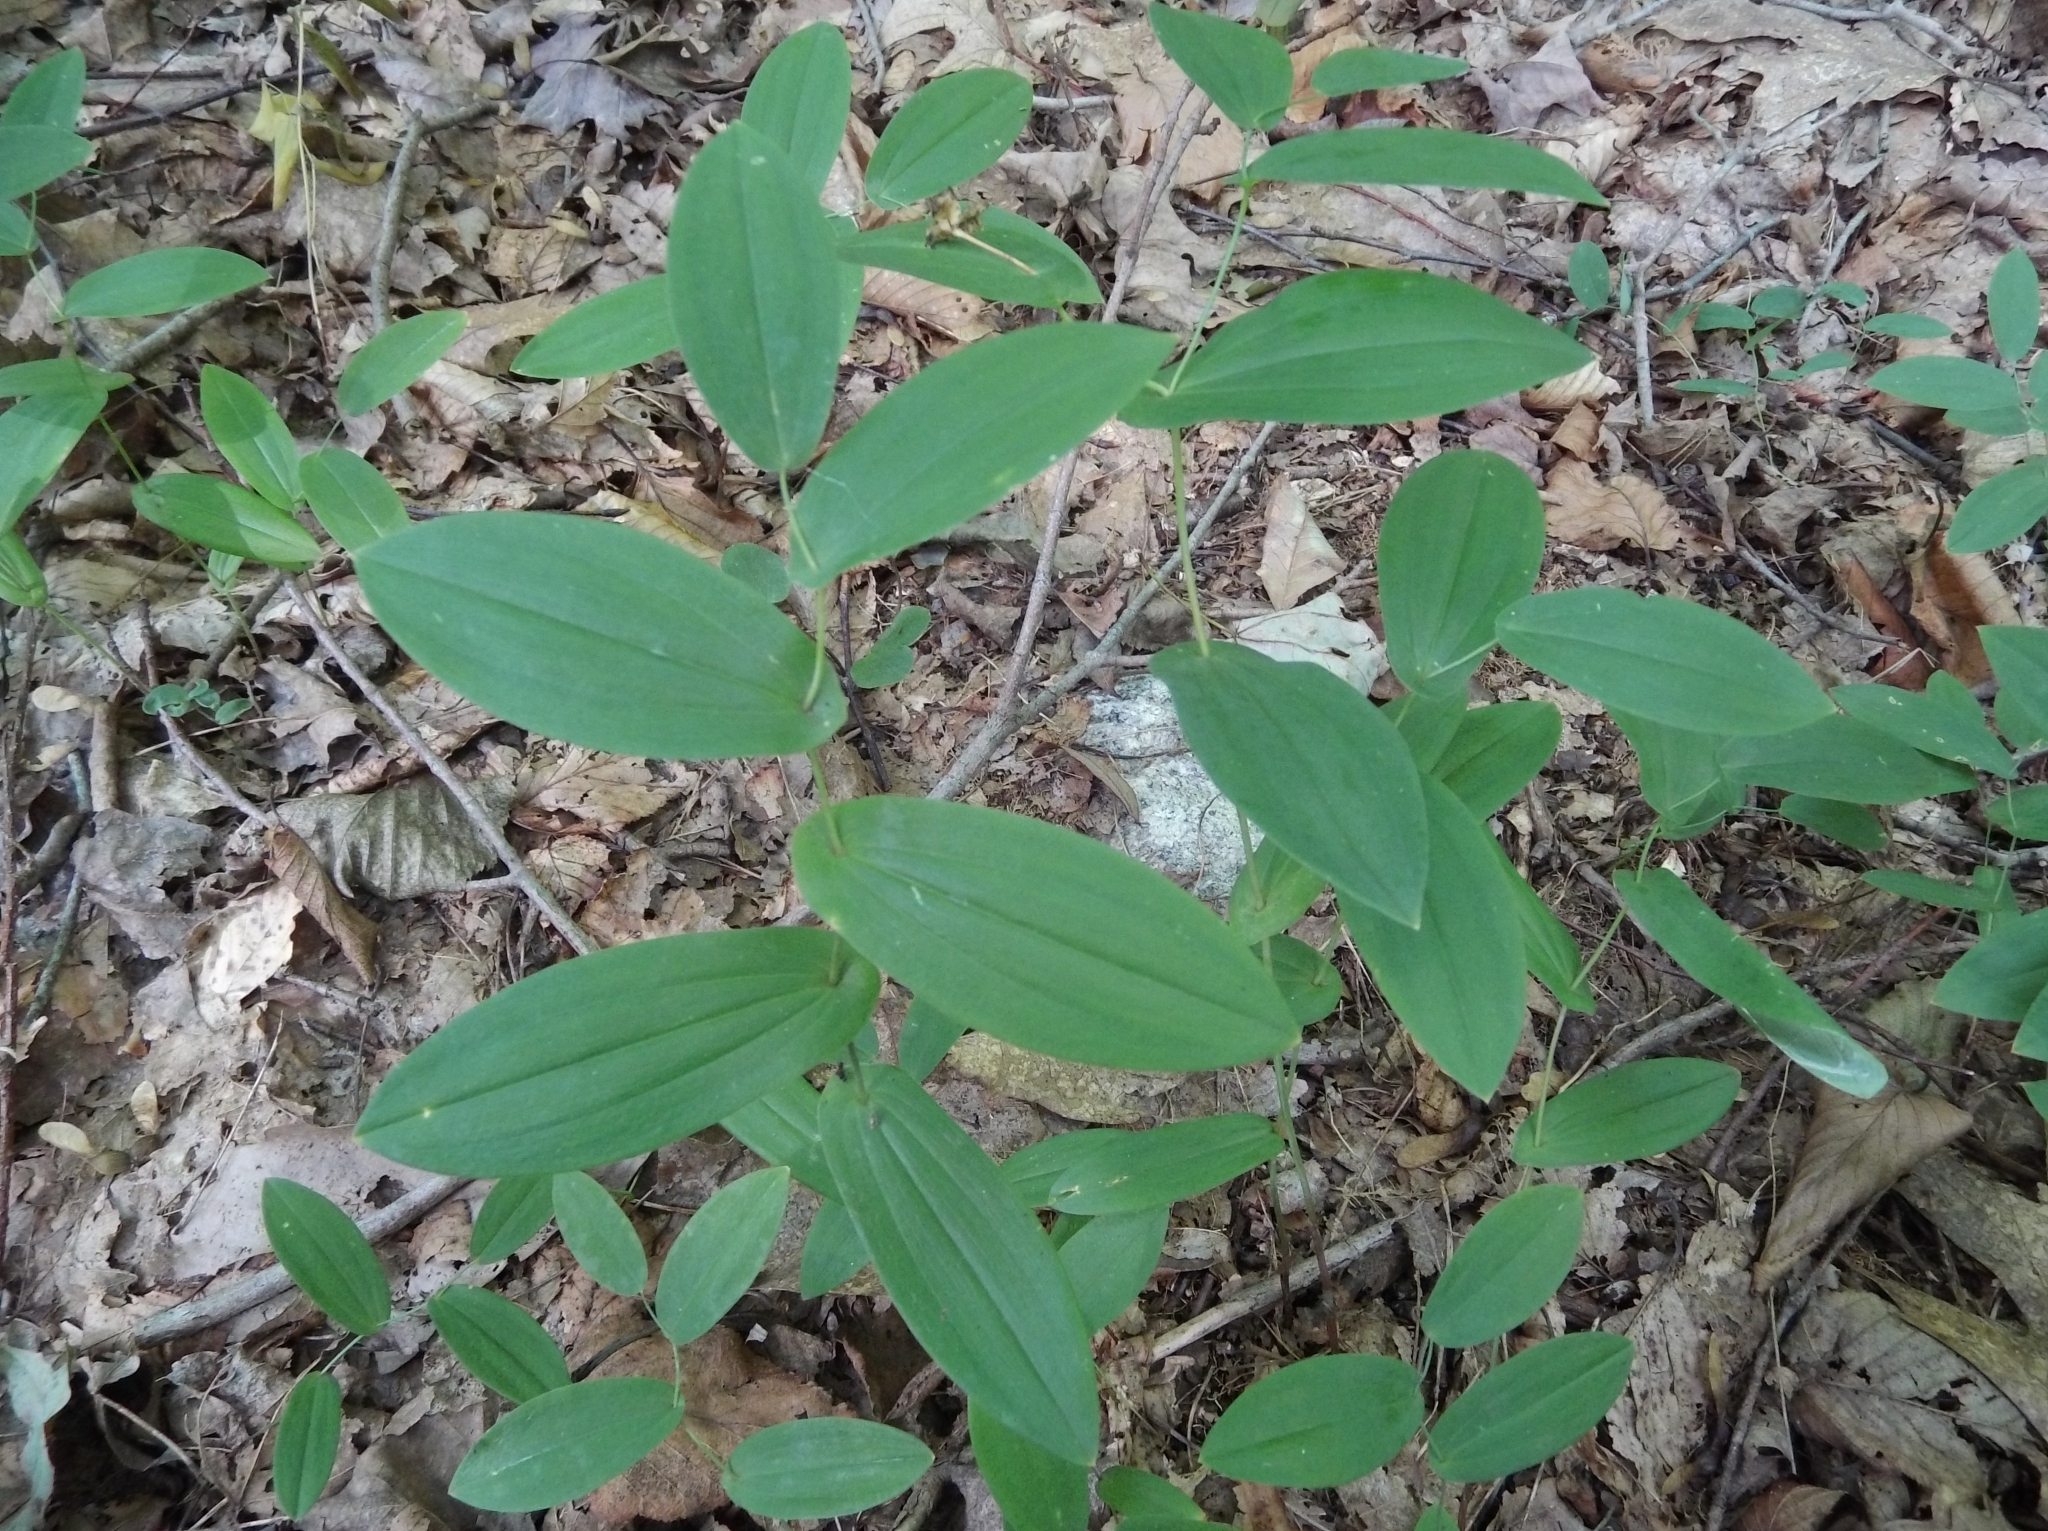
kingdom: Plantae
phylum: Tracheophyta
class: Liliopsida
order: Liliales
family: Colchicaceae
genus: Uvularia
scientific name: Uvularia perfoliata
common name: Perfoliate bellwort
